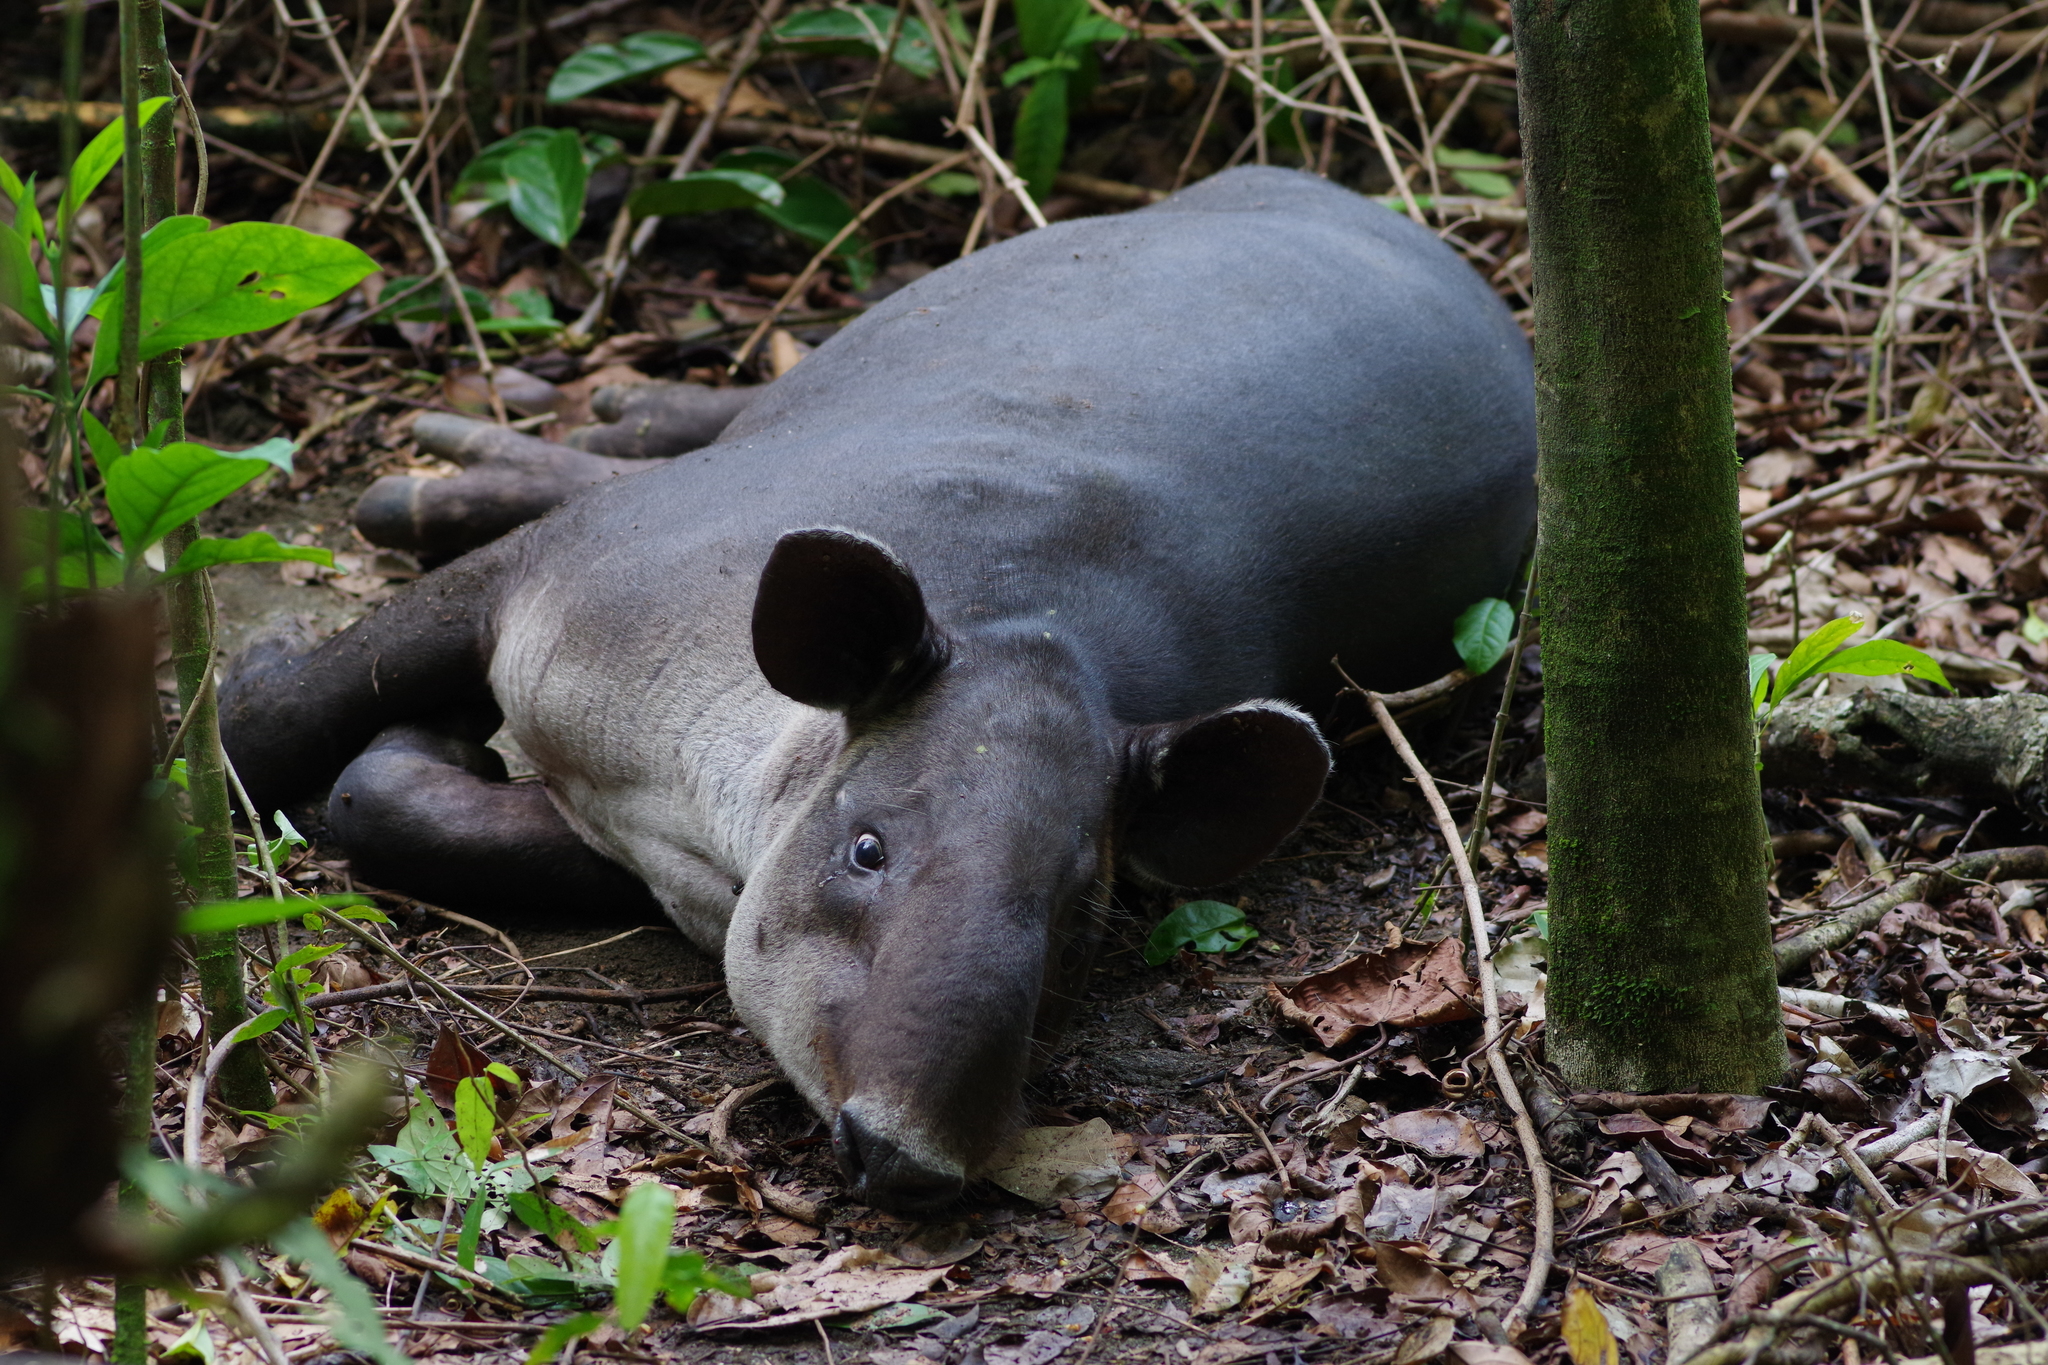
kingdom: Animalia
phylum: Chordata
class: Mammalia
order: Perissodactyla
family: Tapiridae
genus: Tapirella
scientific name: Tapirella bairdii
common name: Baird's tapir
